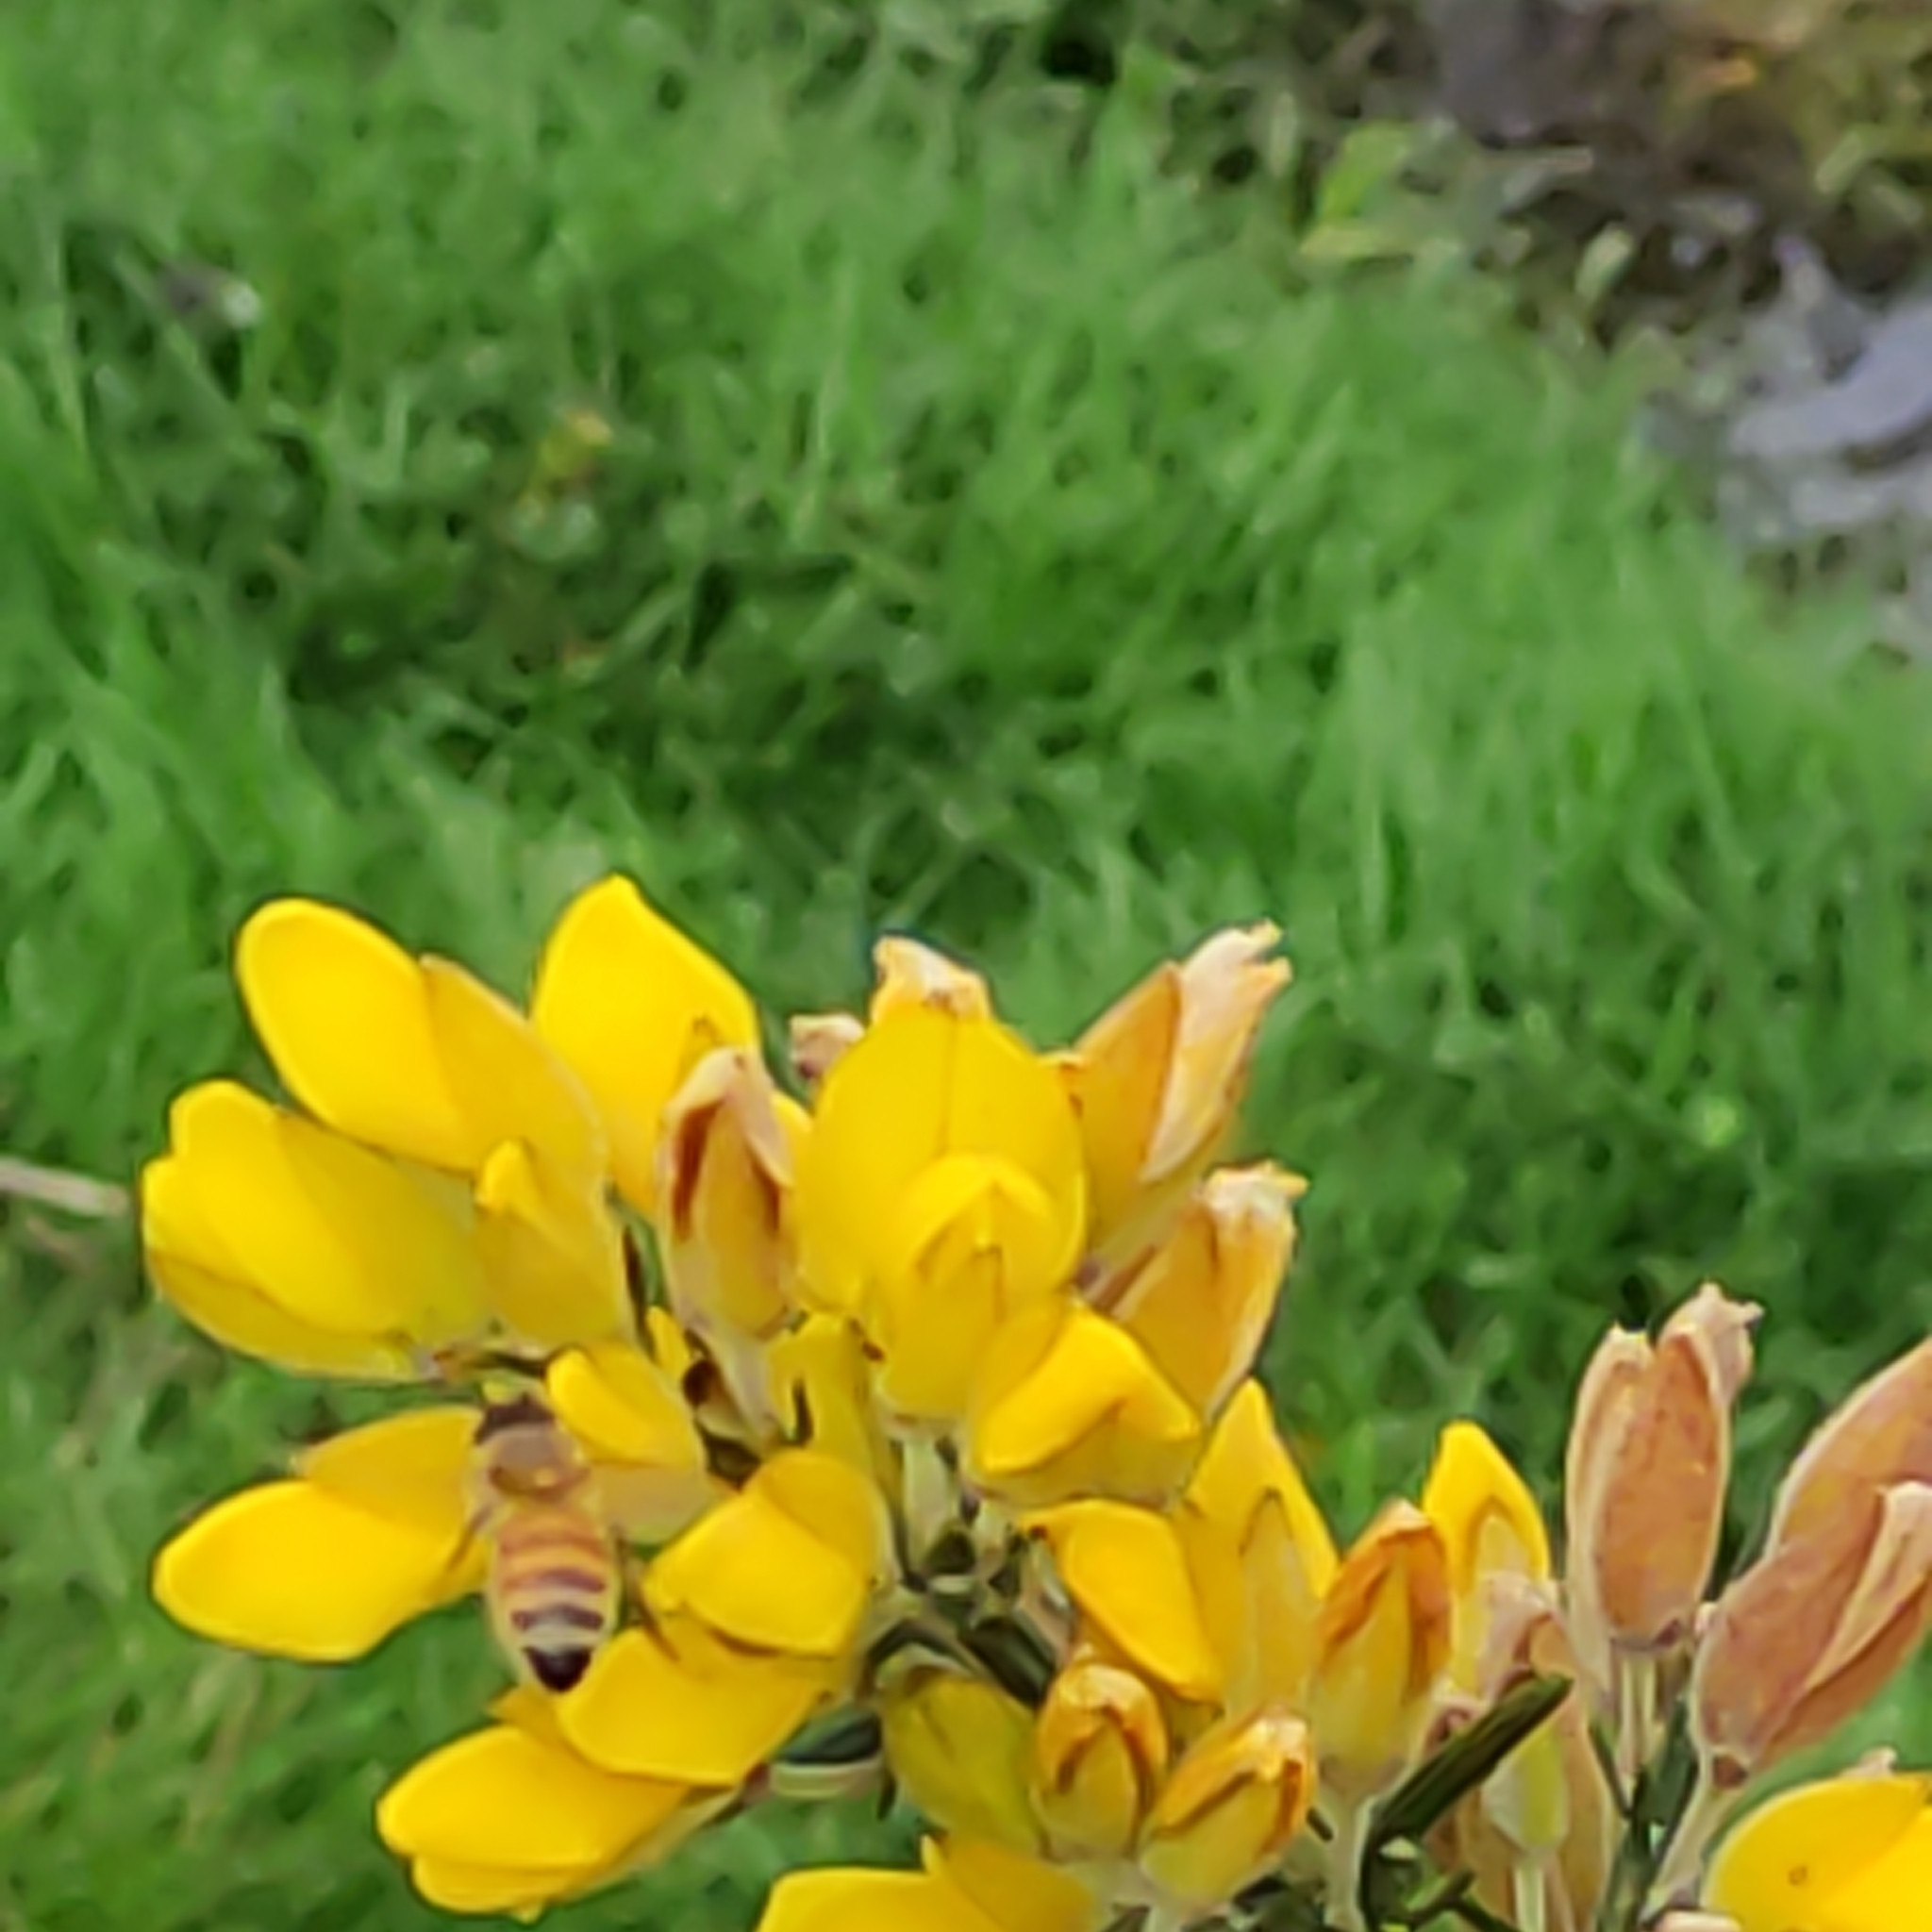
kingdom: Animalia
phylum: Arthropoda
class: Insecta
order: Hymenoptera
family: Apidae
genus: Apis
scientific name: Apis mellifera
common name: Honey bee
